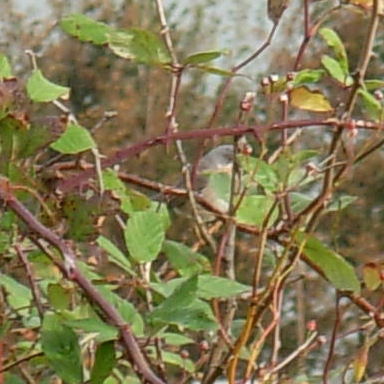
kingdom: Animalia
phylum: Chordata
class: Aves
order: Passeriformes
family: Sylviidae
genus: Curruca
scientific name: Curruca subalpina
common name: Moltoni's warbler
